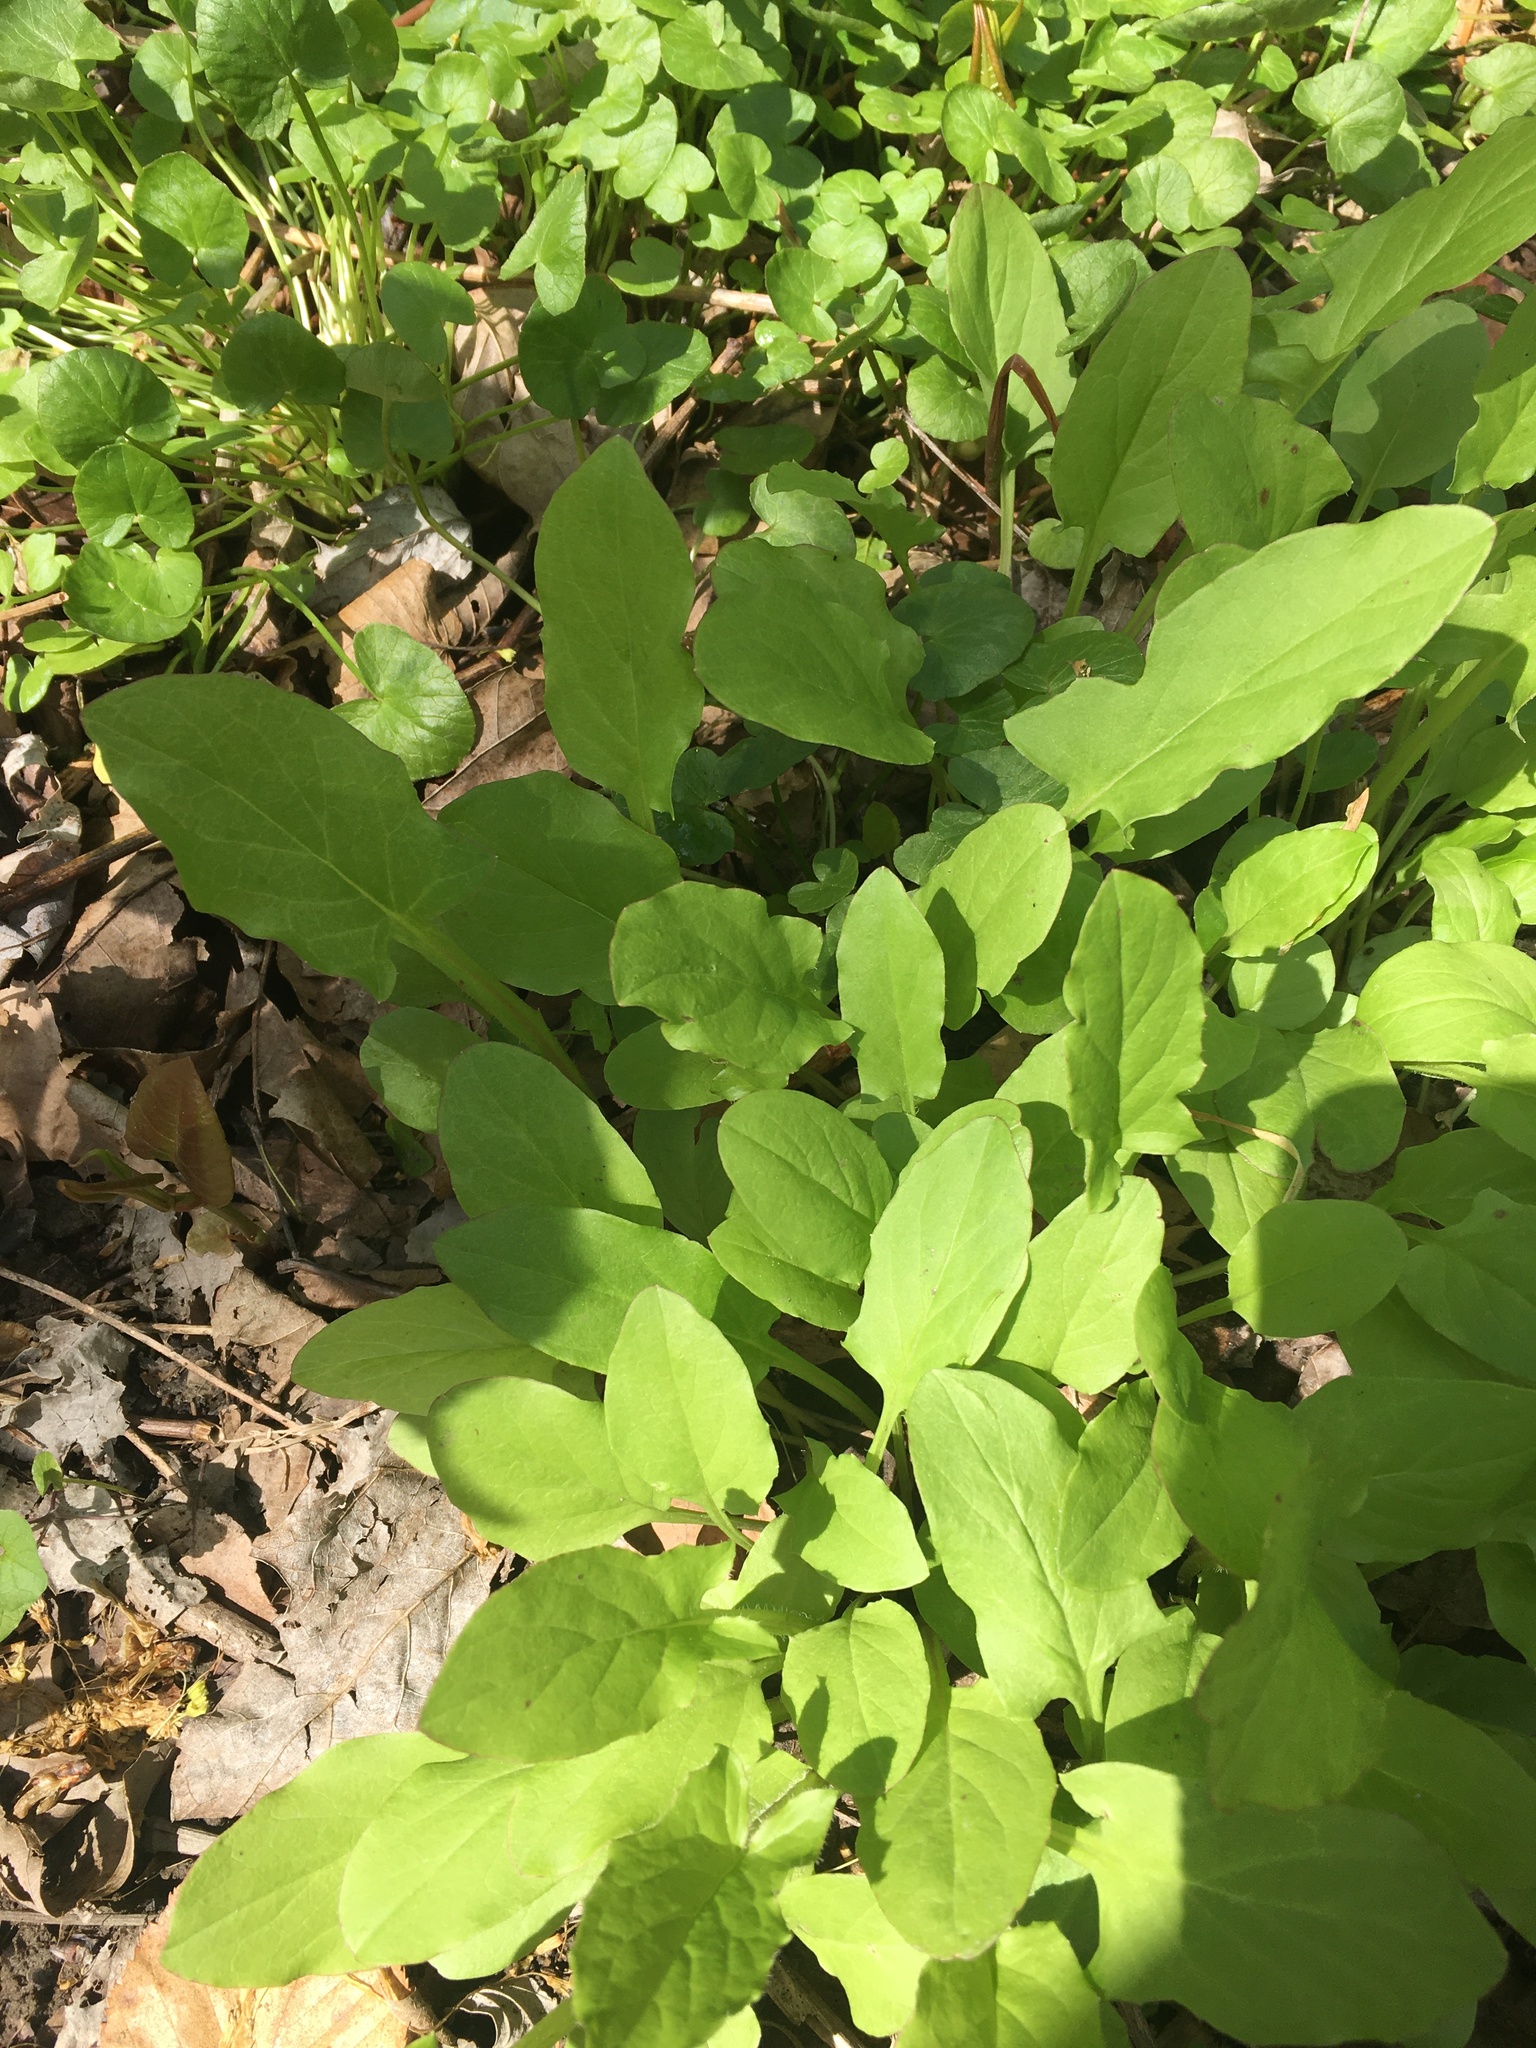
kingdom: Plantae
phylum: Tracheophyta
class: Magnoliopsida
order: Asterales
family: Asteraceae
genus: Nabalus
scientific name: Nabalus crepidineus
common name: Nodding rattlesnakeroot
